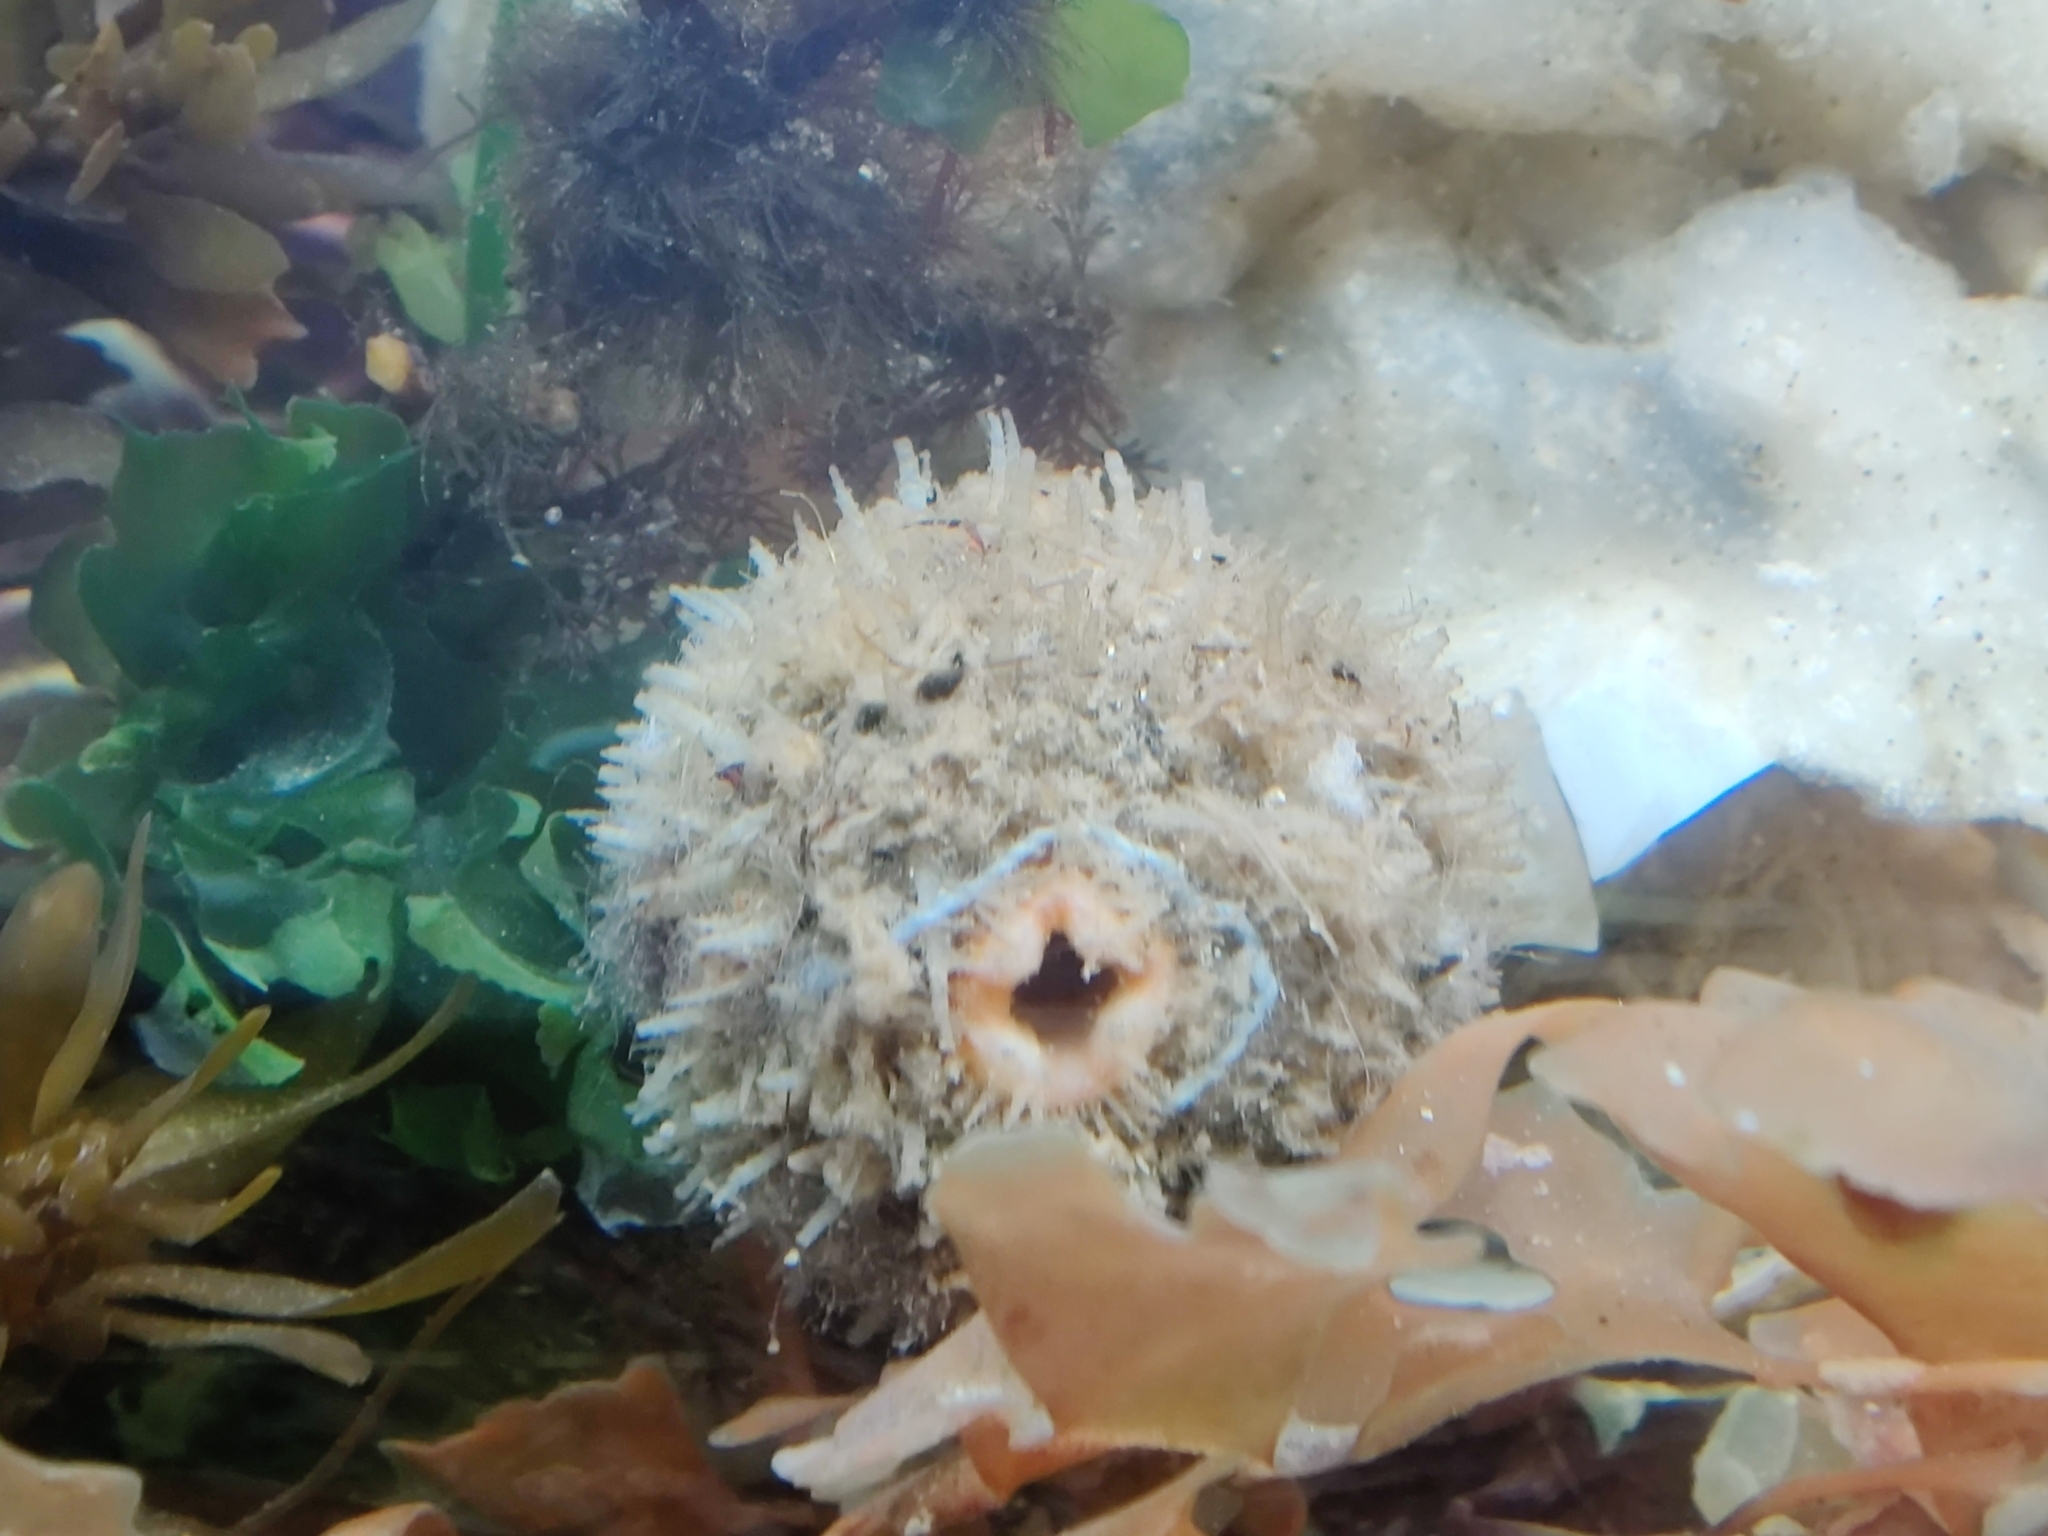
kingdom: Animalia
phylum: Chordata
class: Ascidiacea
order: Stolidobranchia
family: Pyuridae
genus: Halocynthia
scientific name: Halocynthia igaboja
